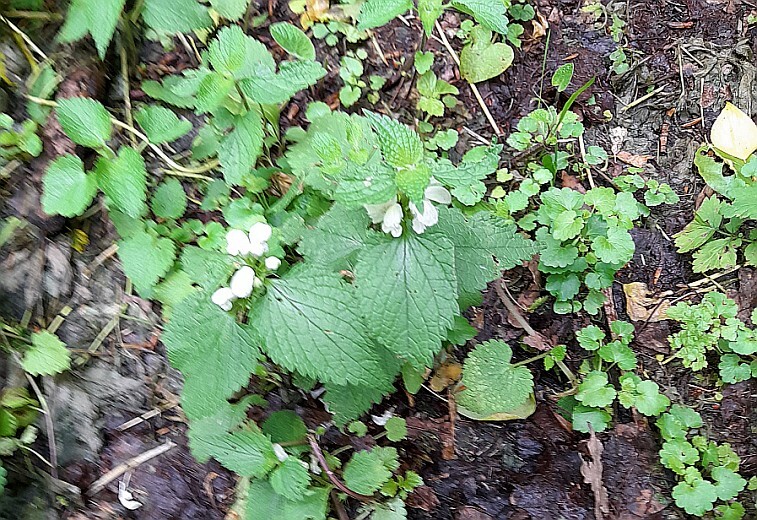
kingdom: Plantae
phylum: Tracheophyta
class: Magnoliopsida
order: Lamiales
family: Lamiaceae
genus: Lamium
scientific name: Lamium album
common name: White dead-nettle
